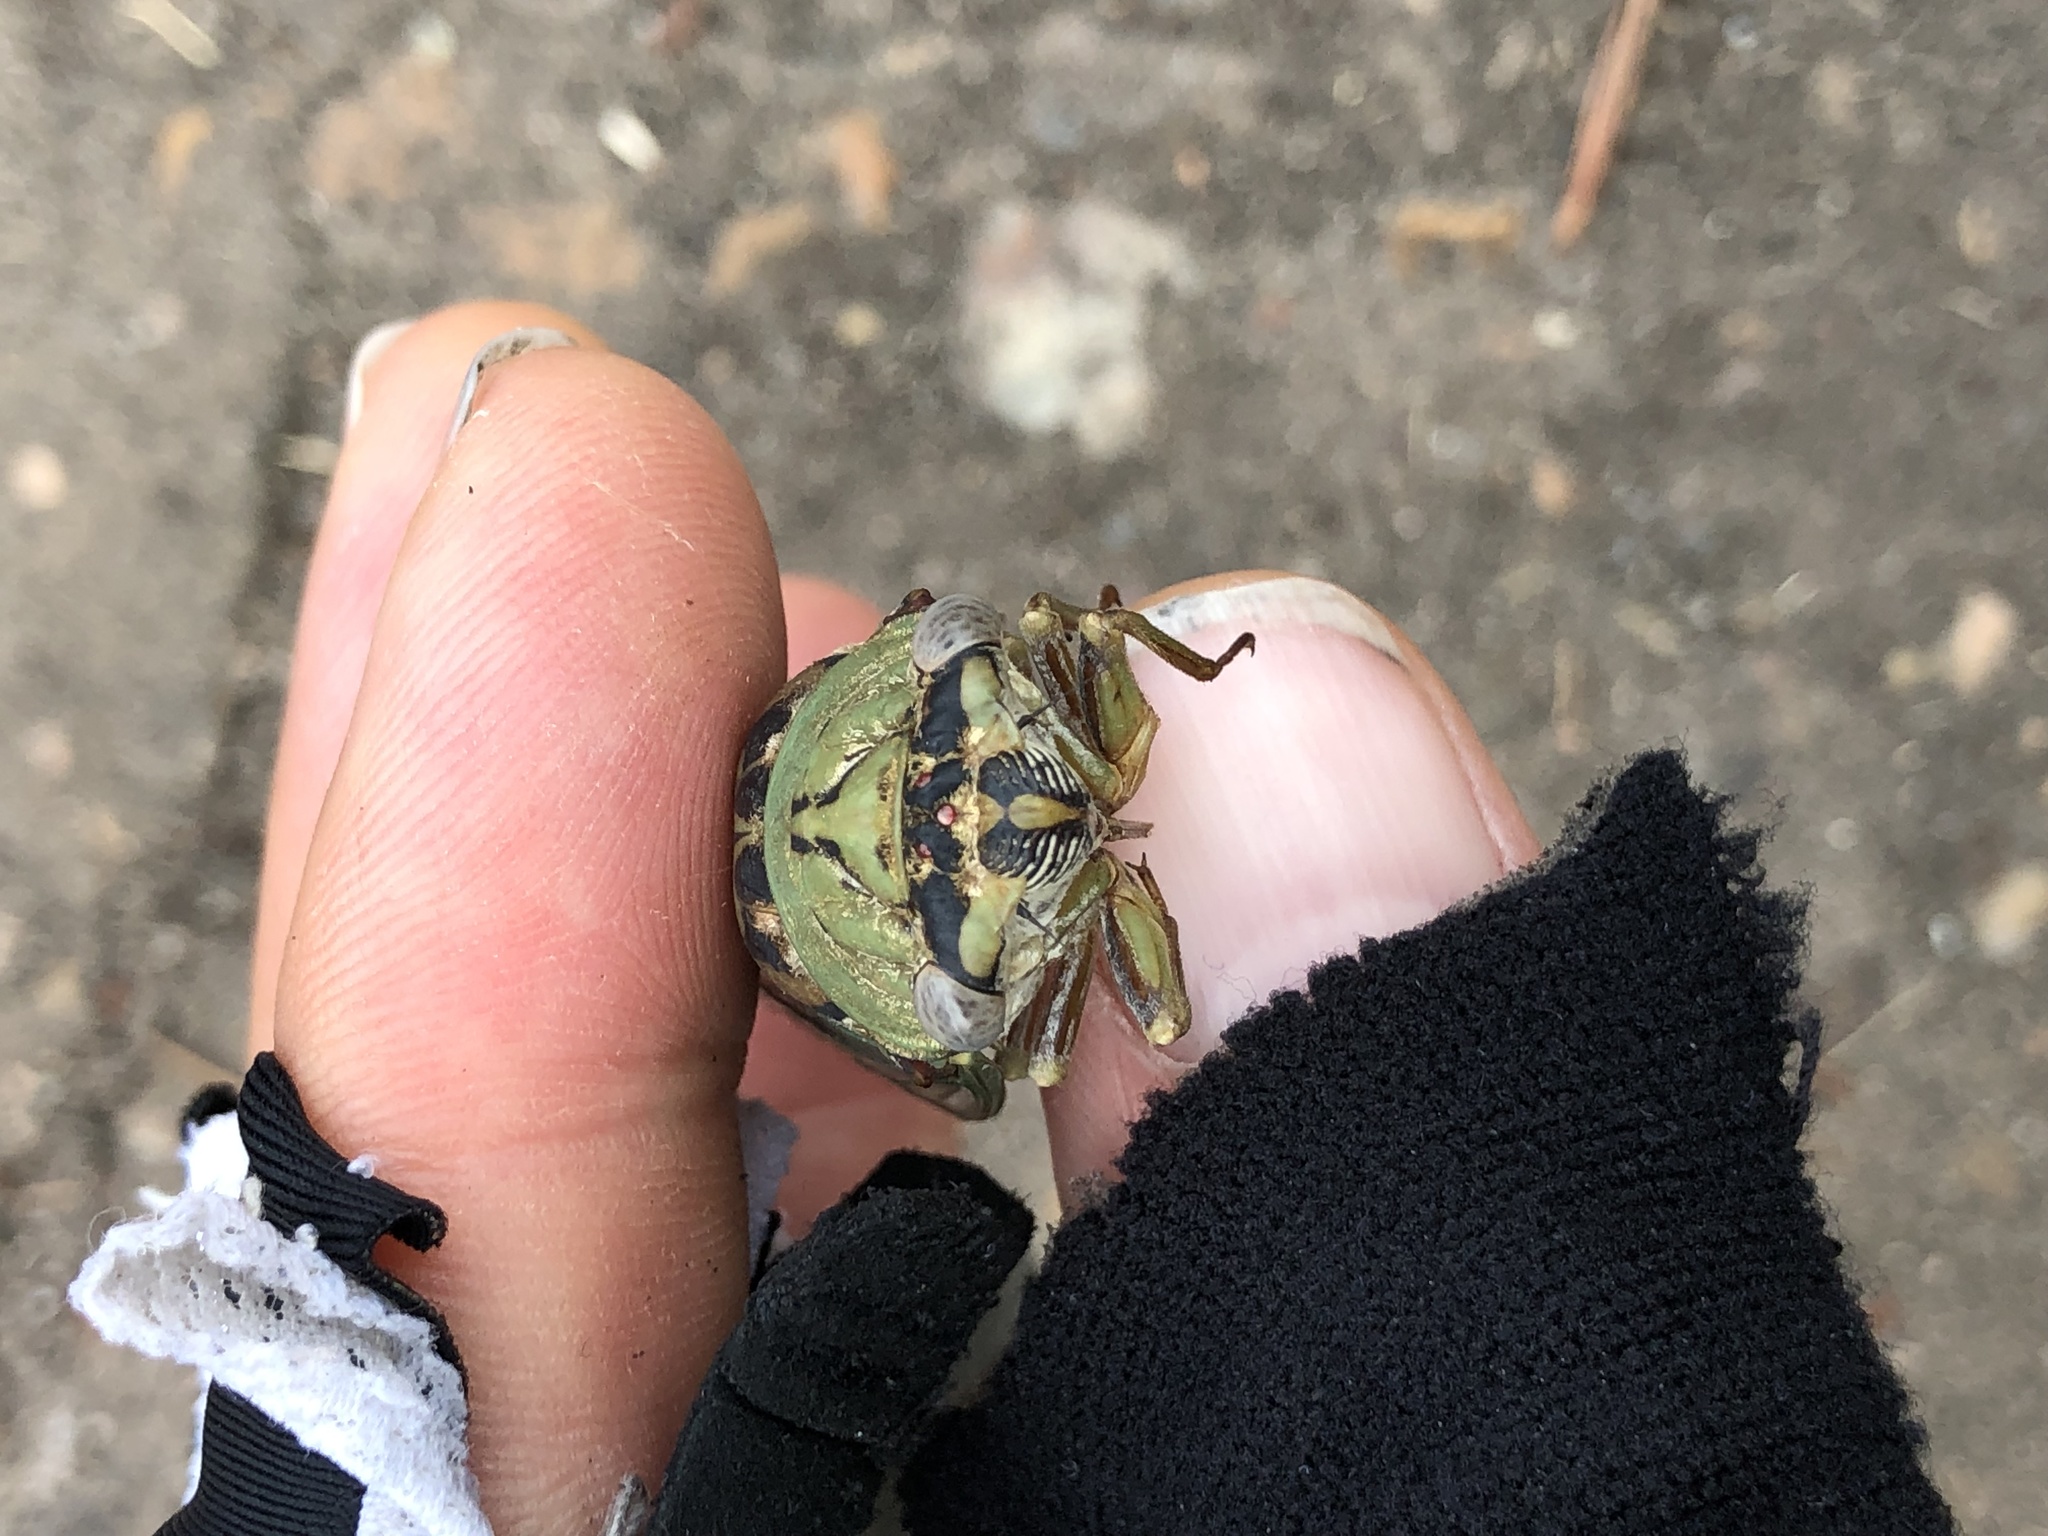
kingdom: Animalia
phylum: Arthropoda
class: Insecta
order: Hemiptera
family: Cicadidae
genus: Megatibicen
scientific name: Megatibicen resh
